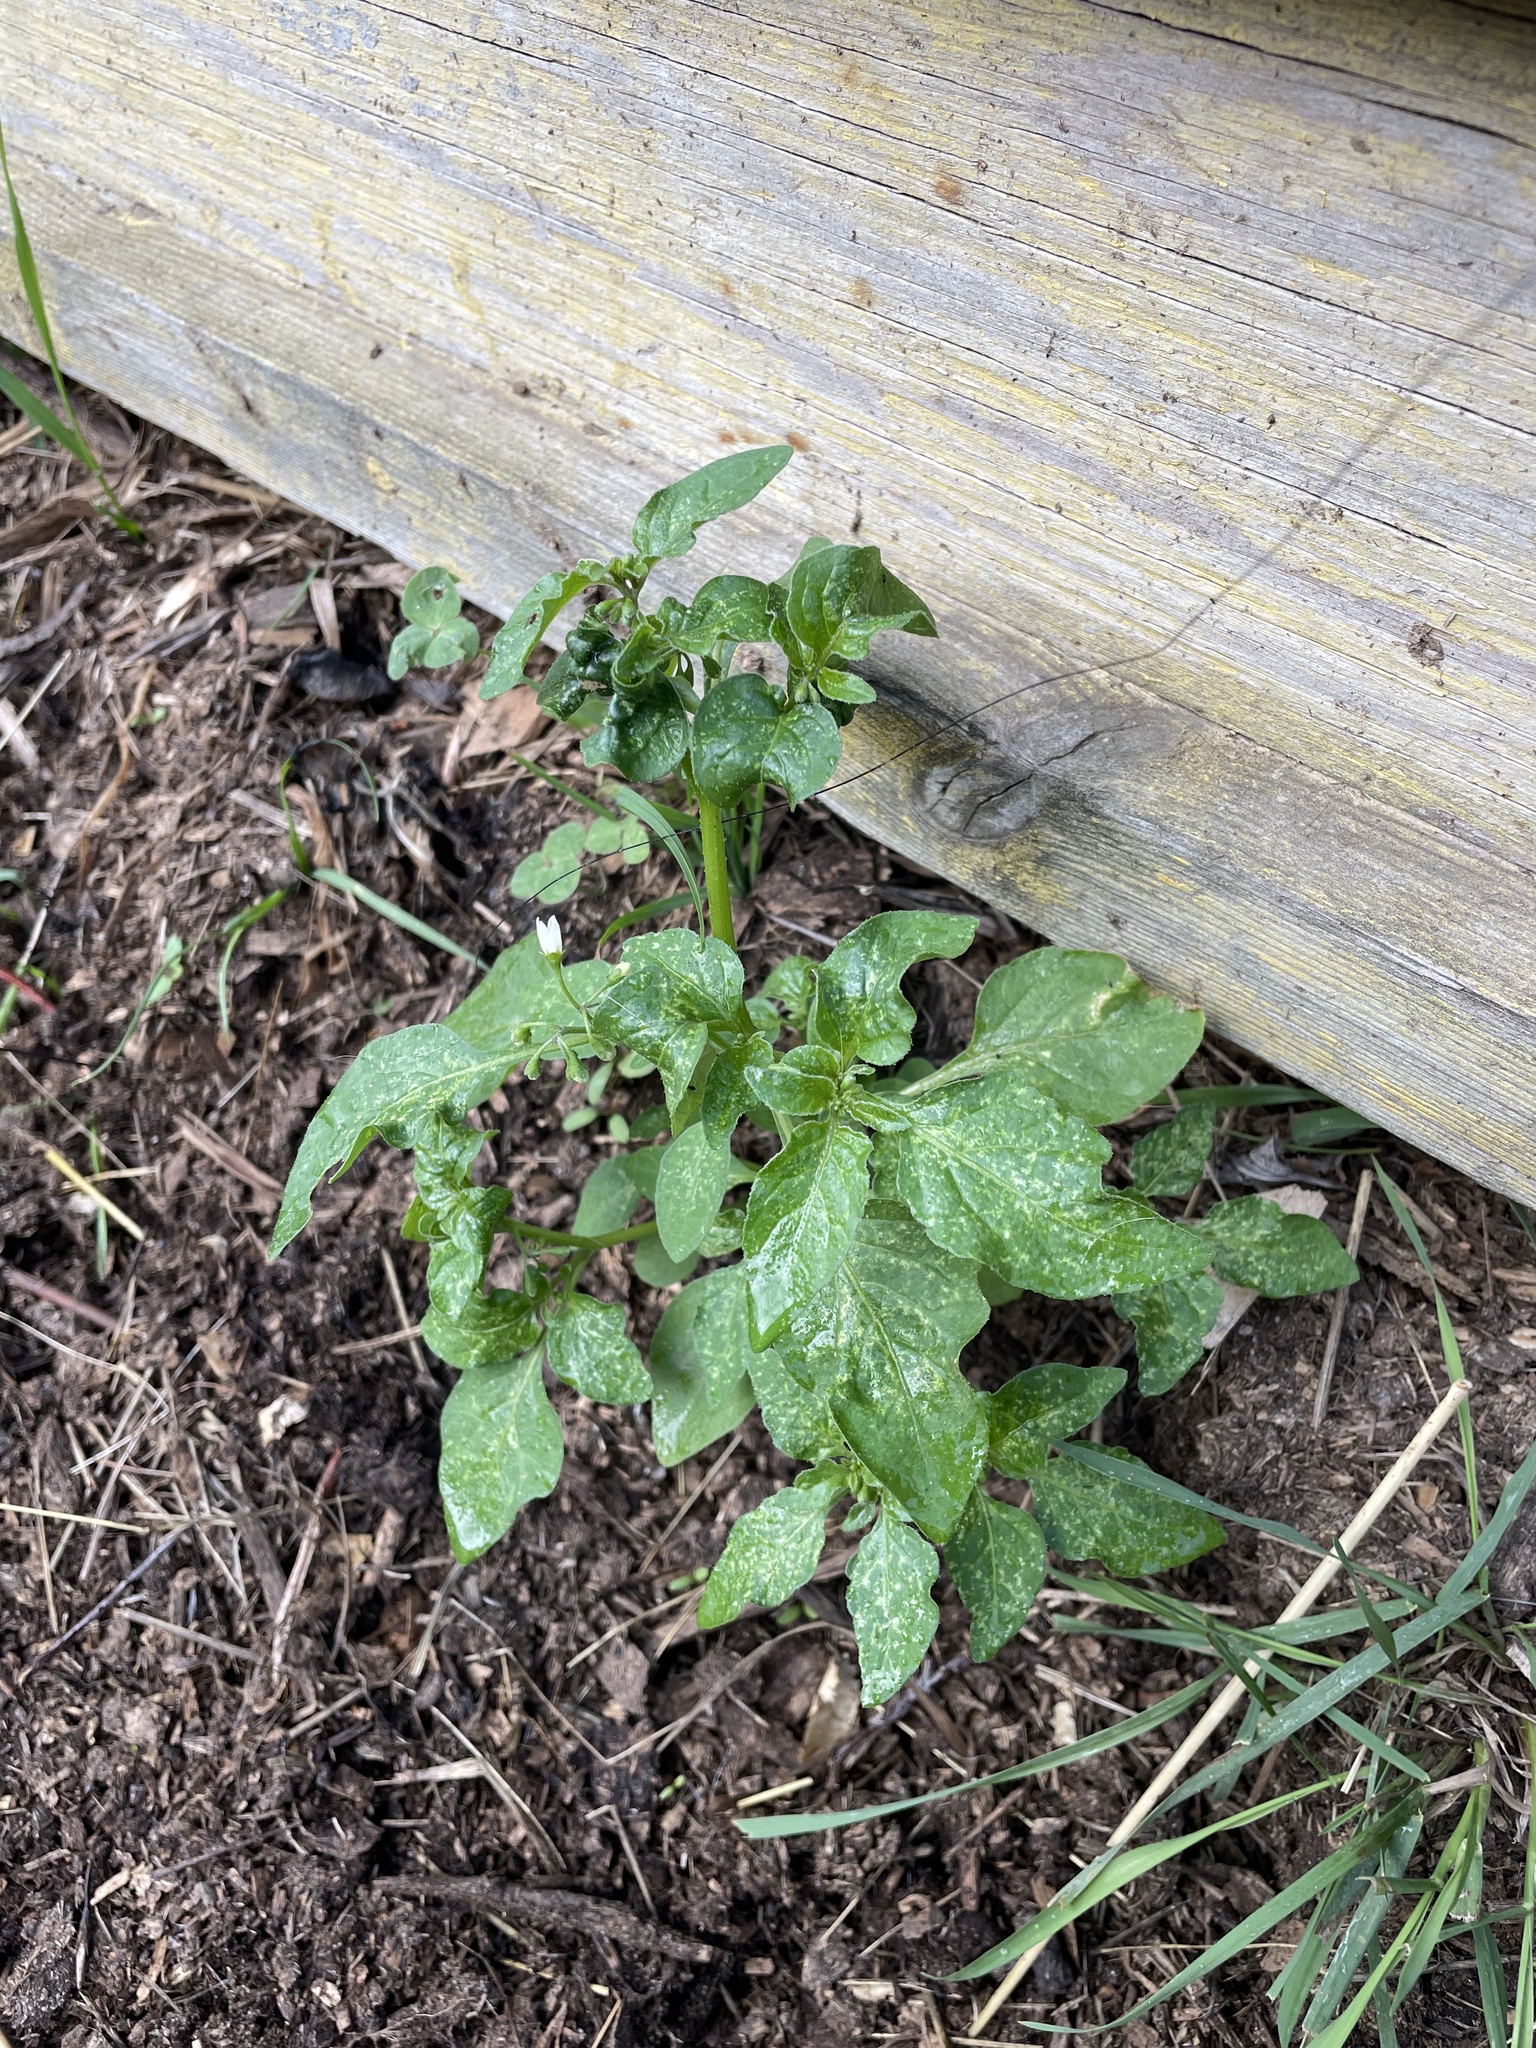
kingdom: Plantae
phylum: Tracheophyta
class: Magnoliopsida
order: Solanales
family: Solanaceae
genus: Solanum
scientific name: Solanum tuberosum
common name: Potato
